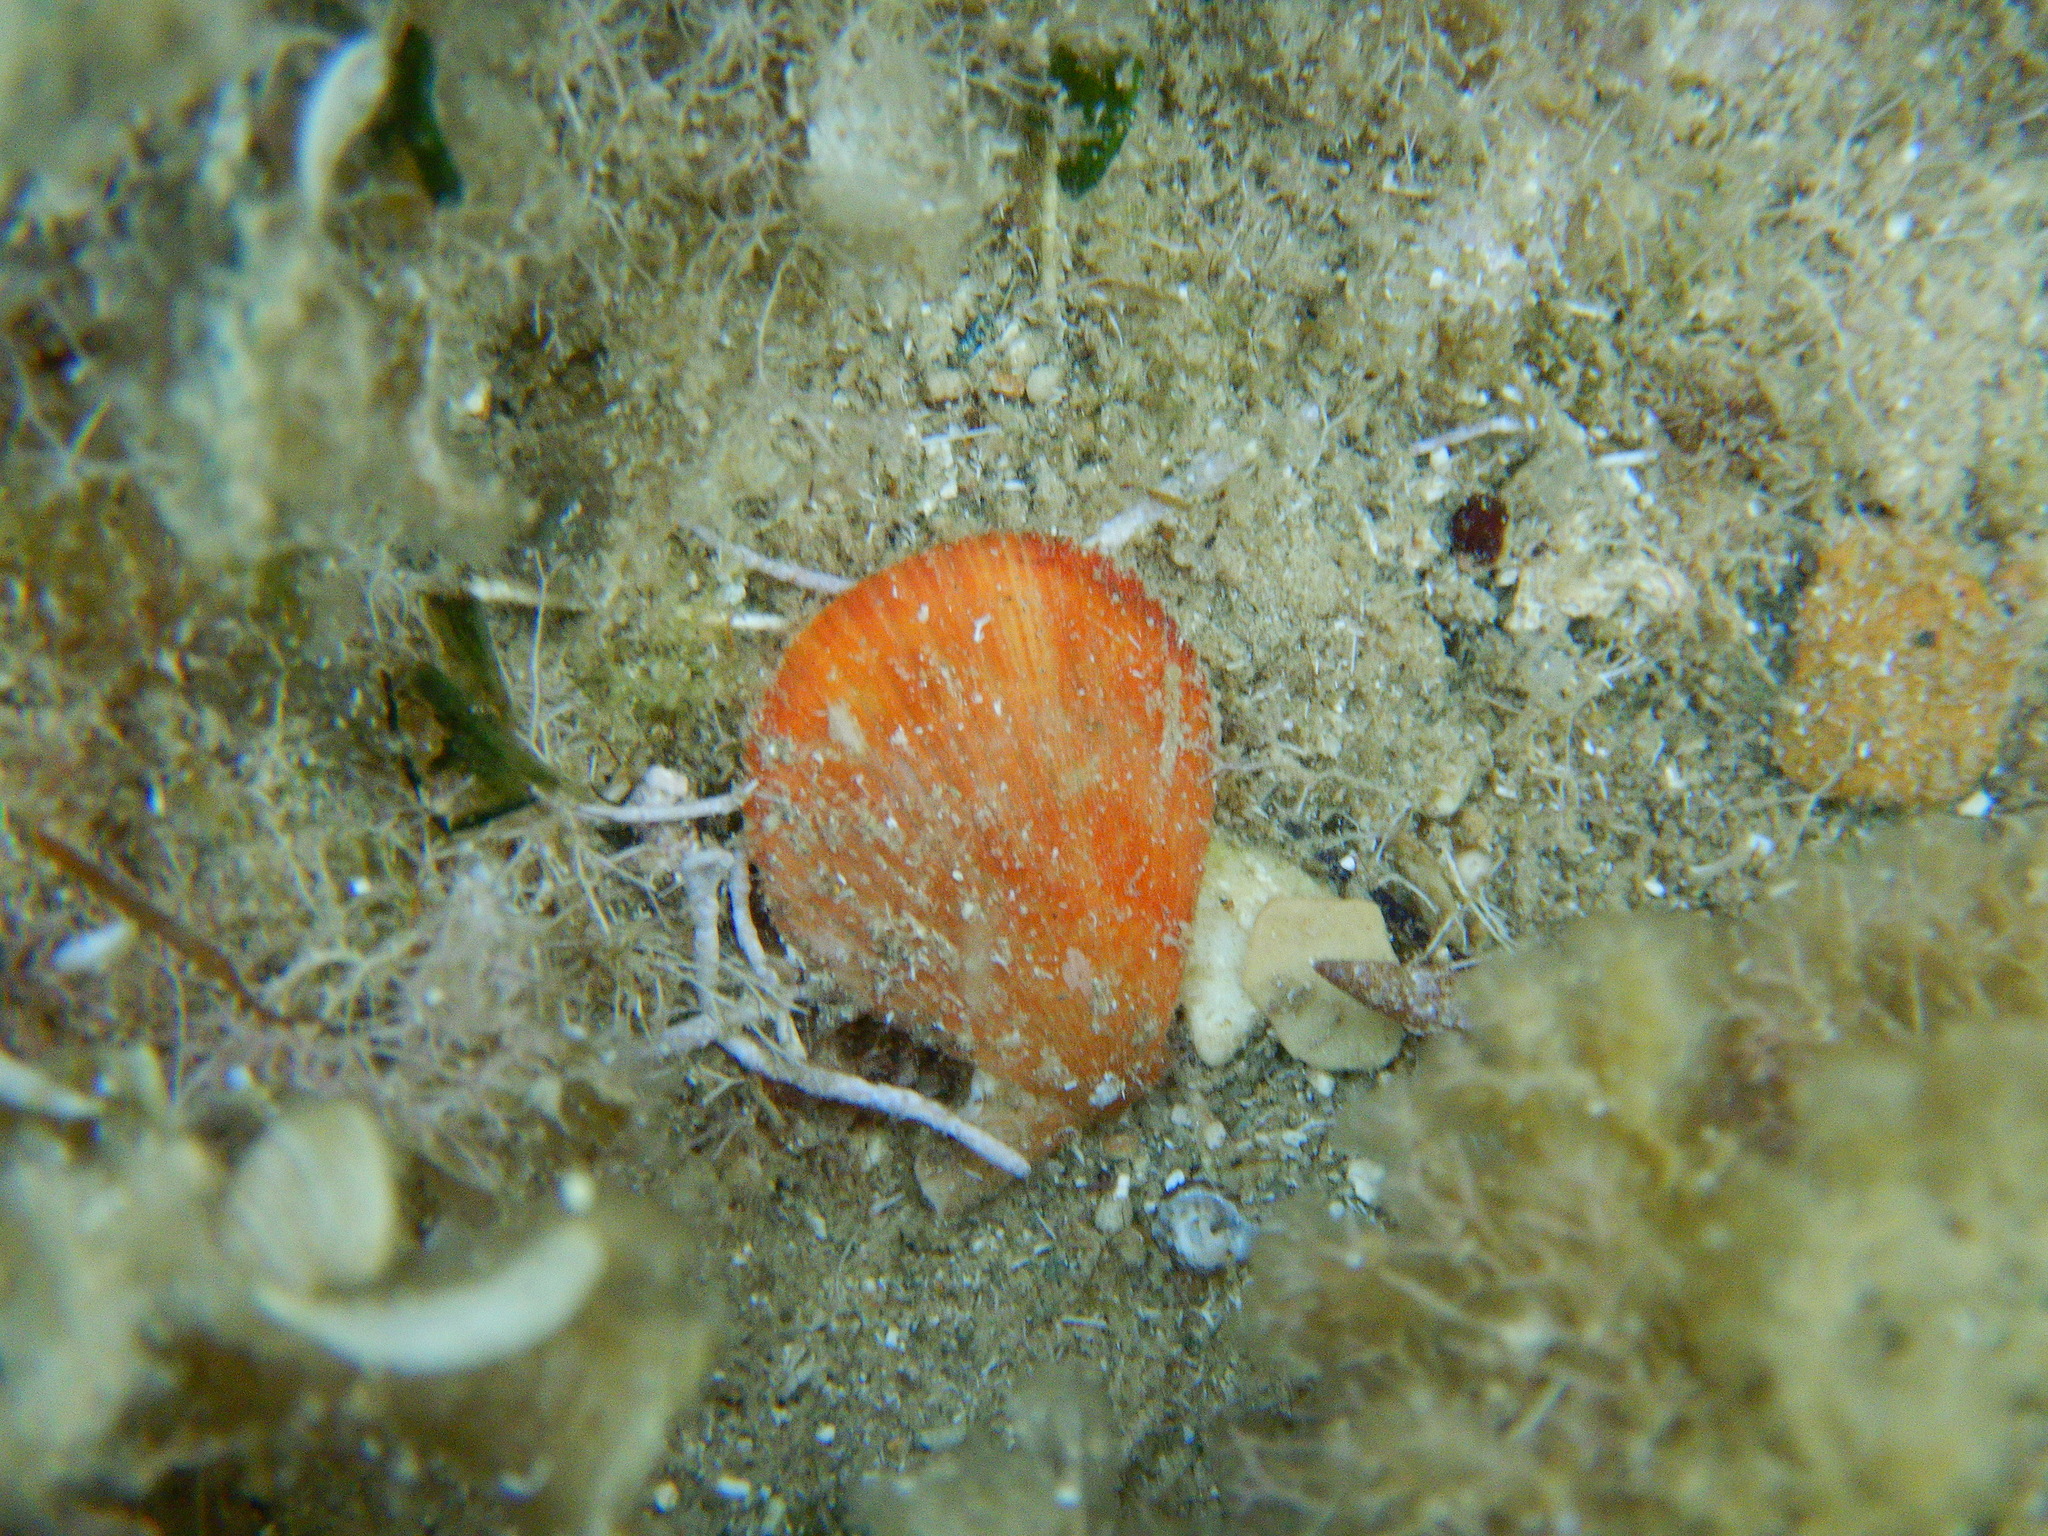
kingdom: Animalia
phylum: Mollusca
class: Bivalvia
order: Pectinida
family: Pectinidae
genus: Mimachlamys
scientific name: Mimachlamys varia
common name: Variegated scallop
